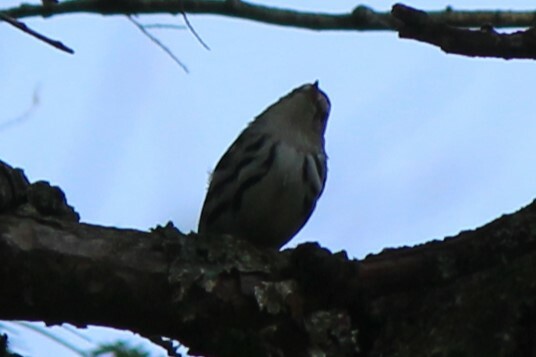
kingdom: Animalia
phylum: Chordata
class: Aves
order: Passeriformes
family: Parulidae
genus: Mniotilta
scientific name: Mniotilta varia
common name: Black-and-white warbler
